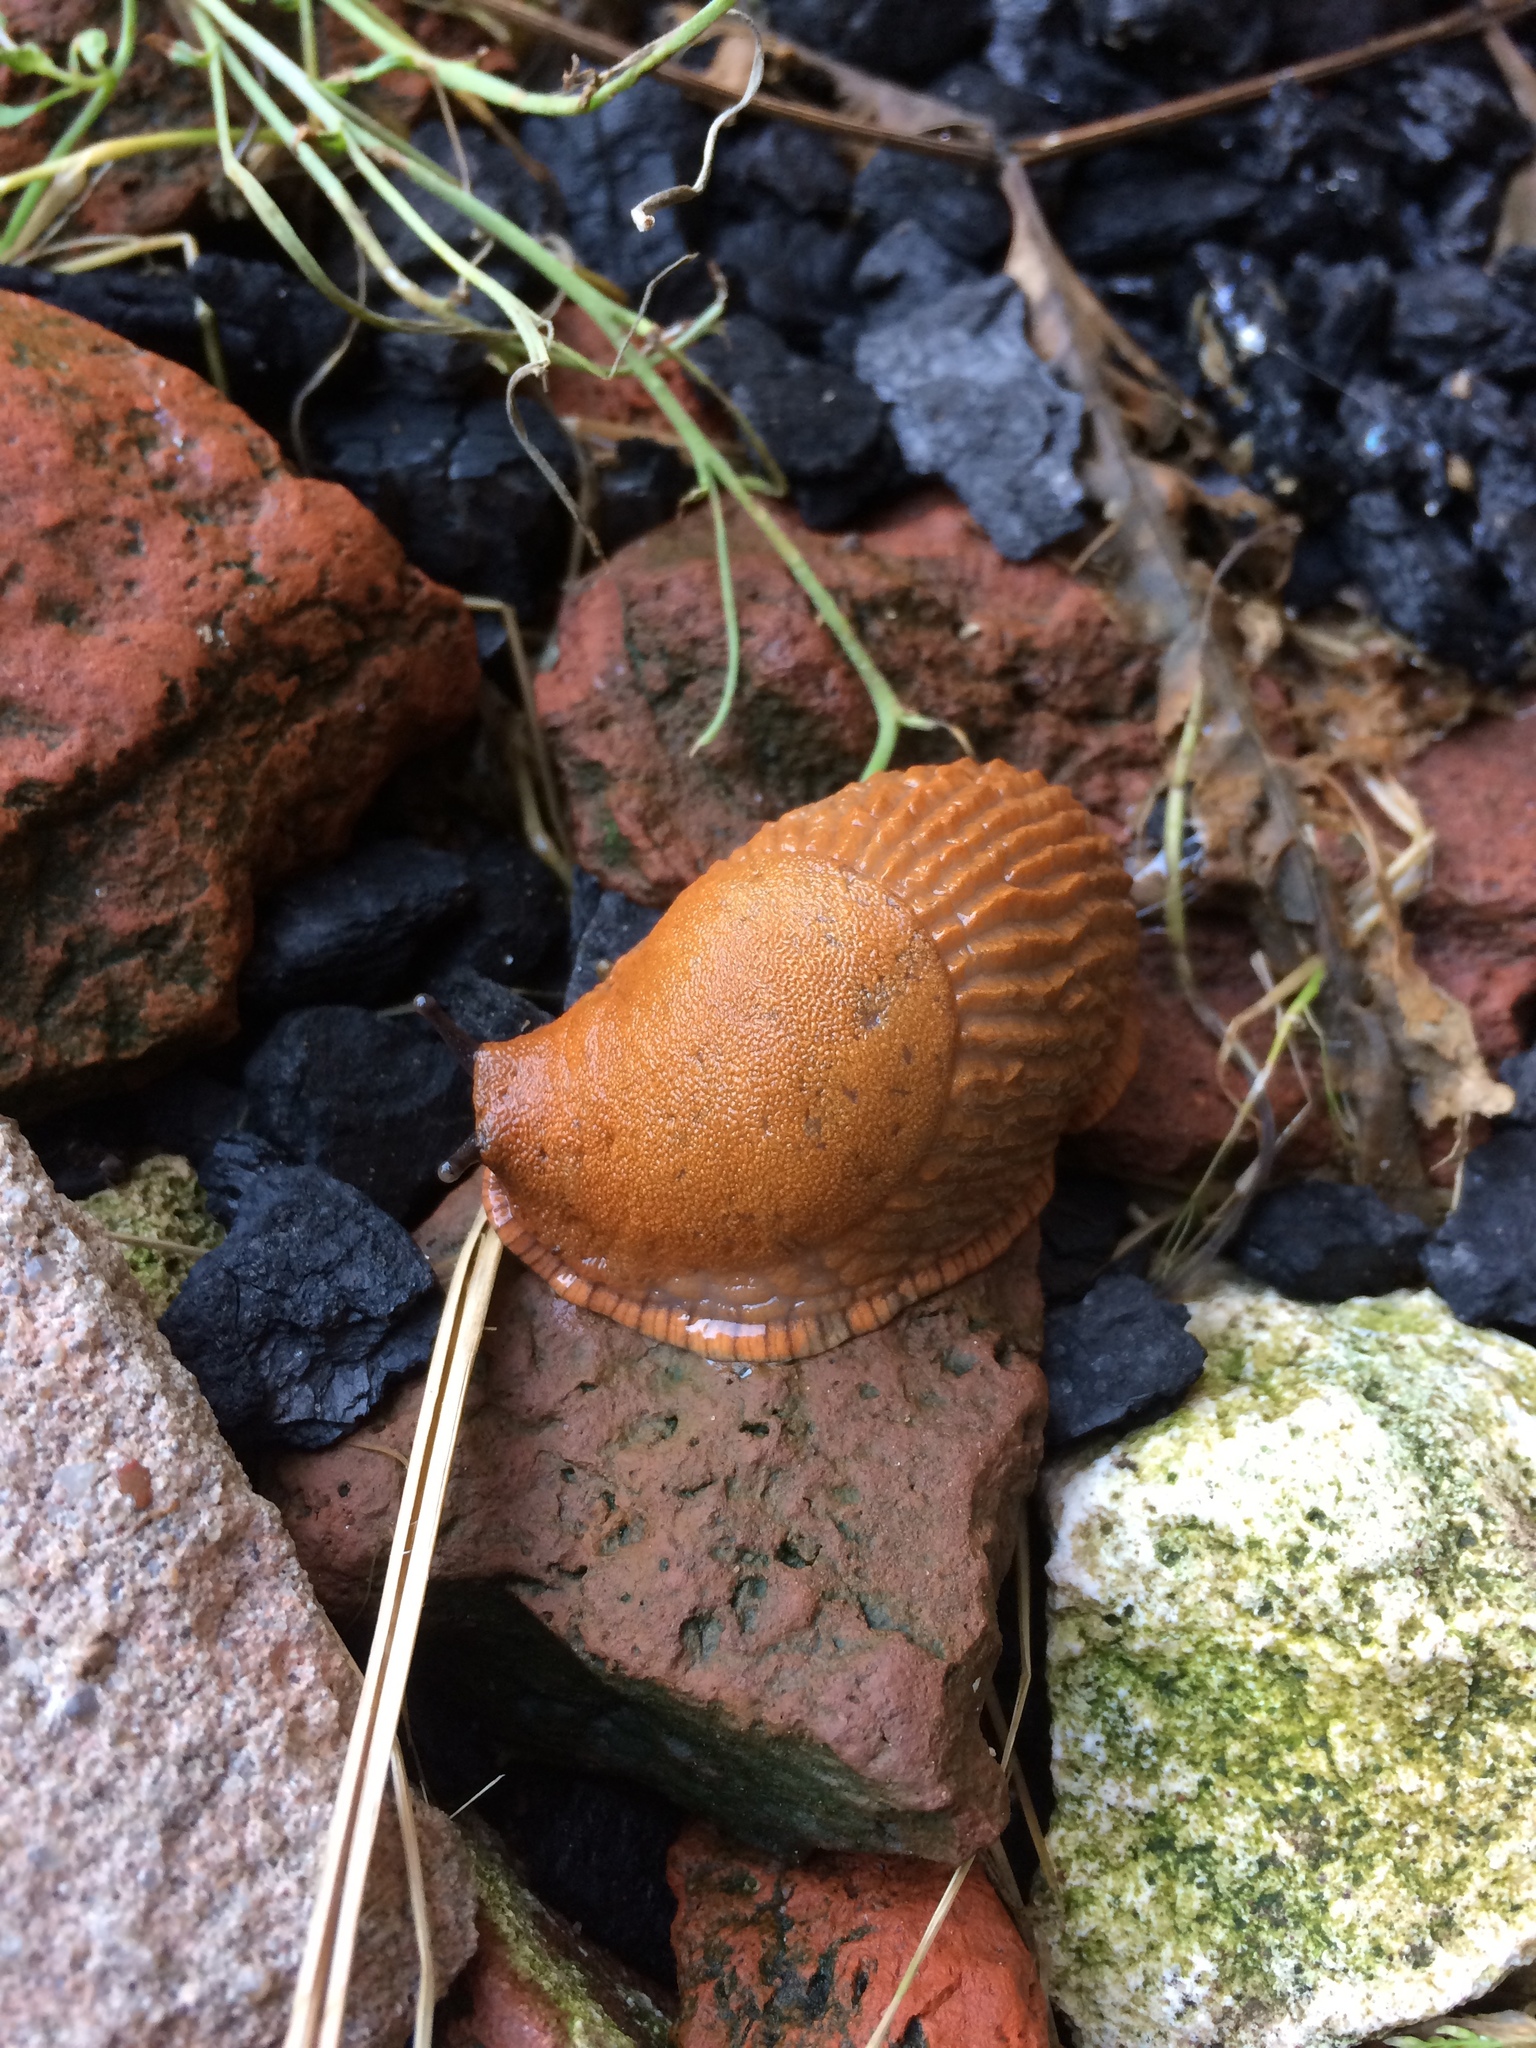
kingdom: Animalia
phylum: Mollusca
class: Gastropoda
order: Stylommatophora
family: Arionidae
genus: Arion
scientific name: Arion
